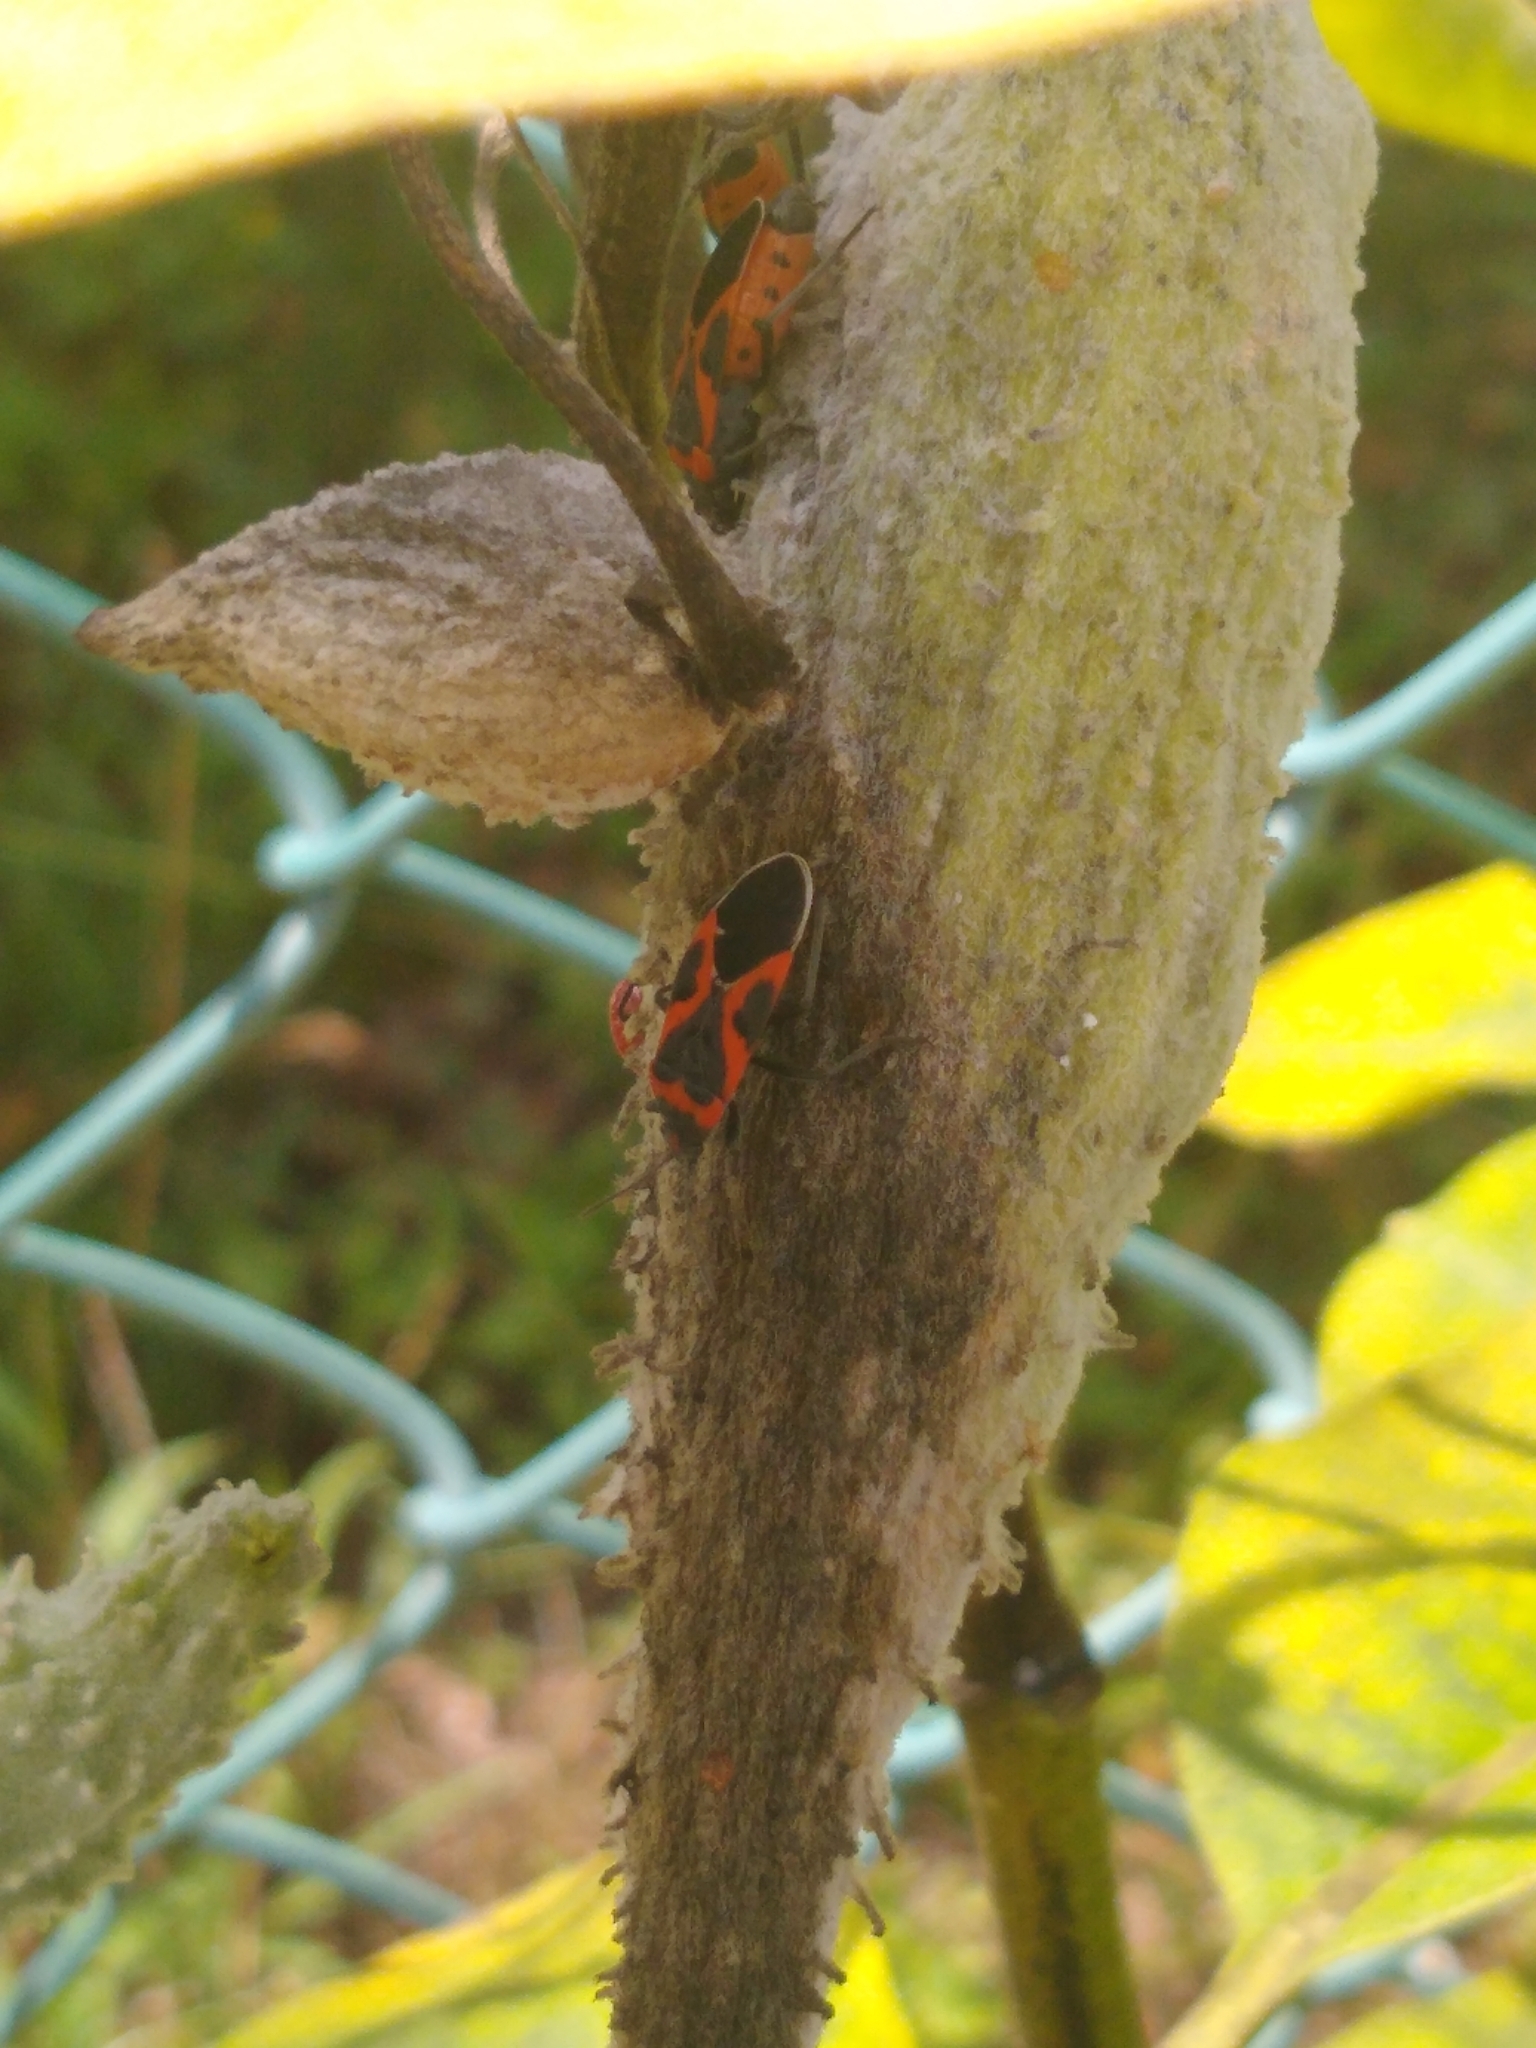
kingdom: Animalia
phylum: Arthropoda
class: Insecta
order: Hemiptera
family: Lygaeidae
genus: Lygaeus
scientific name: Lygaeus kalmii
